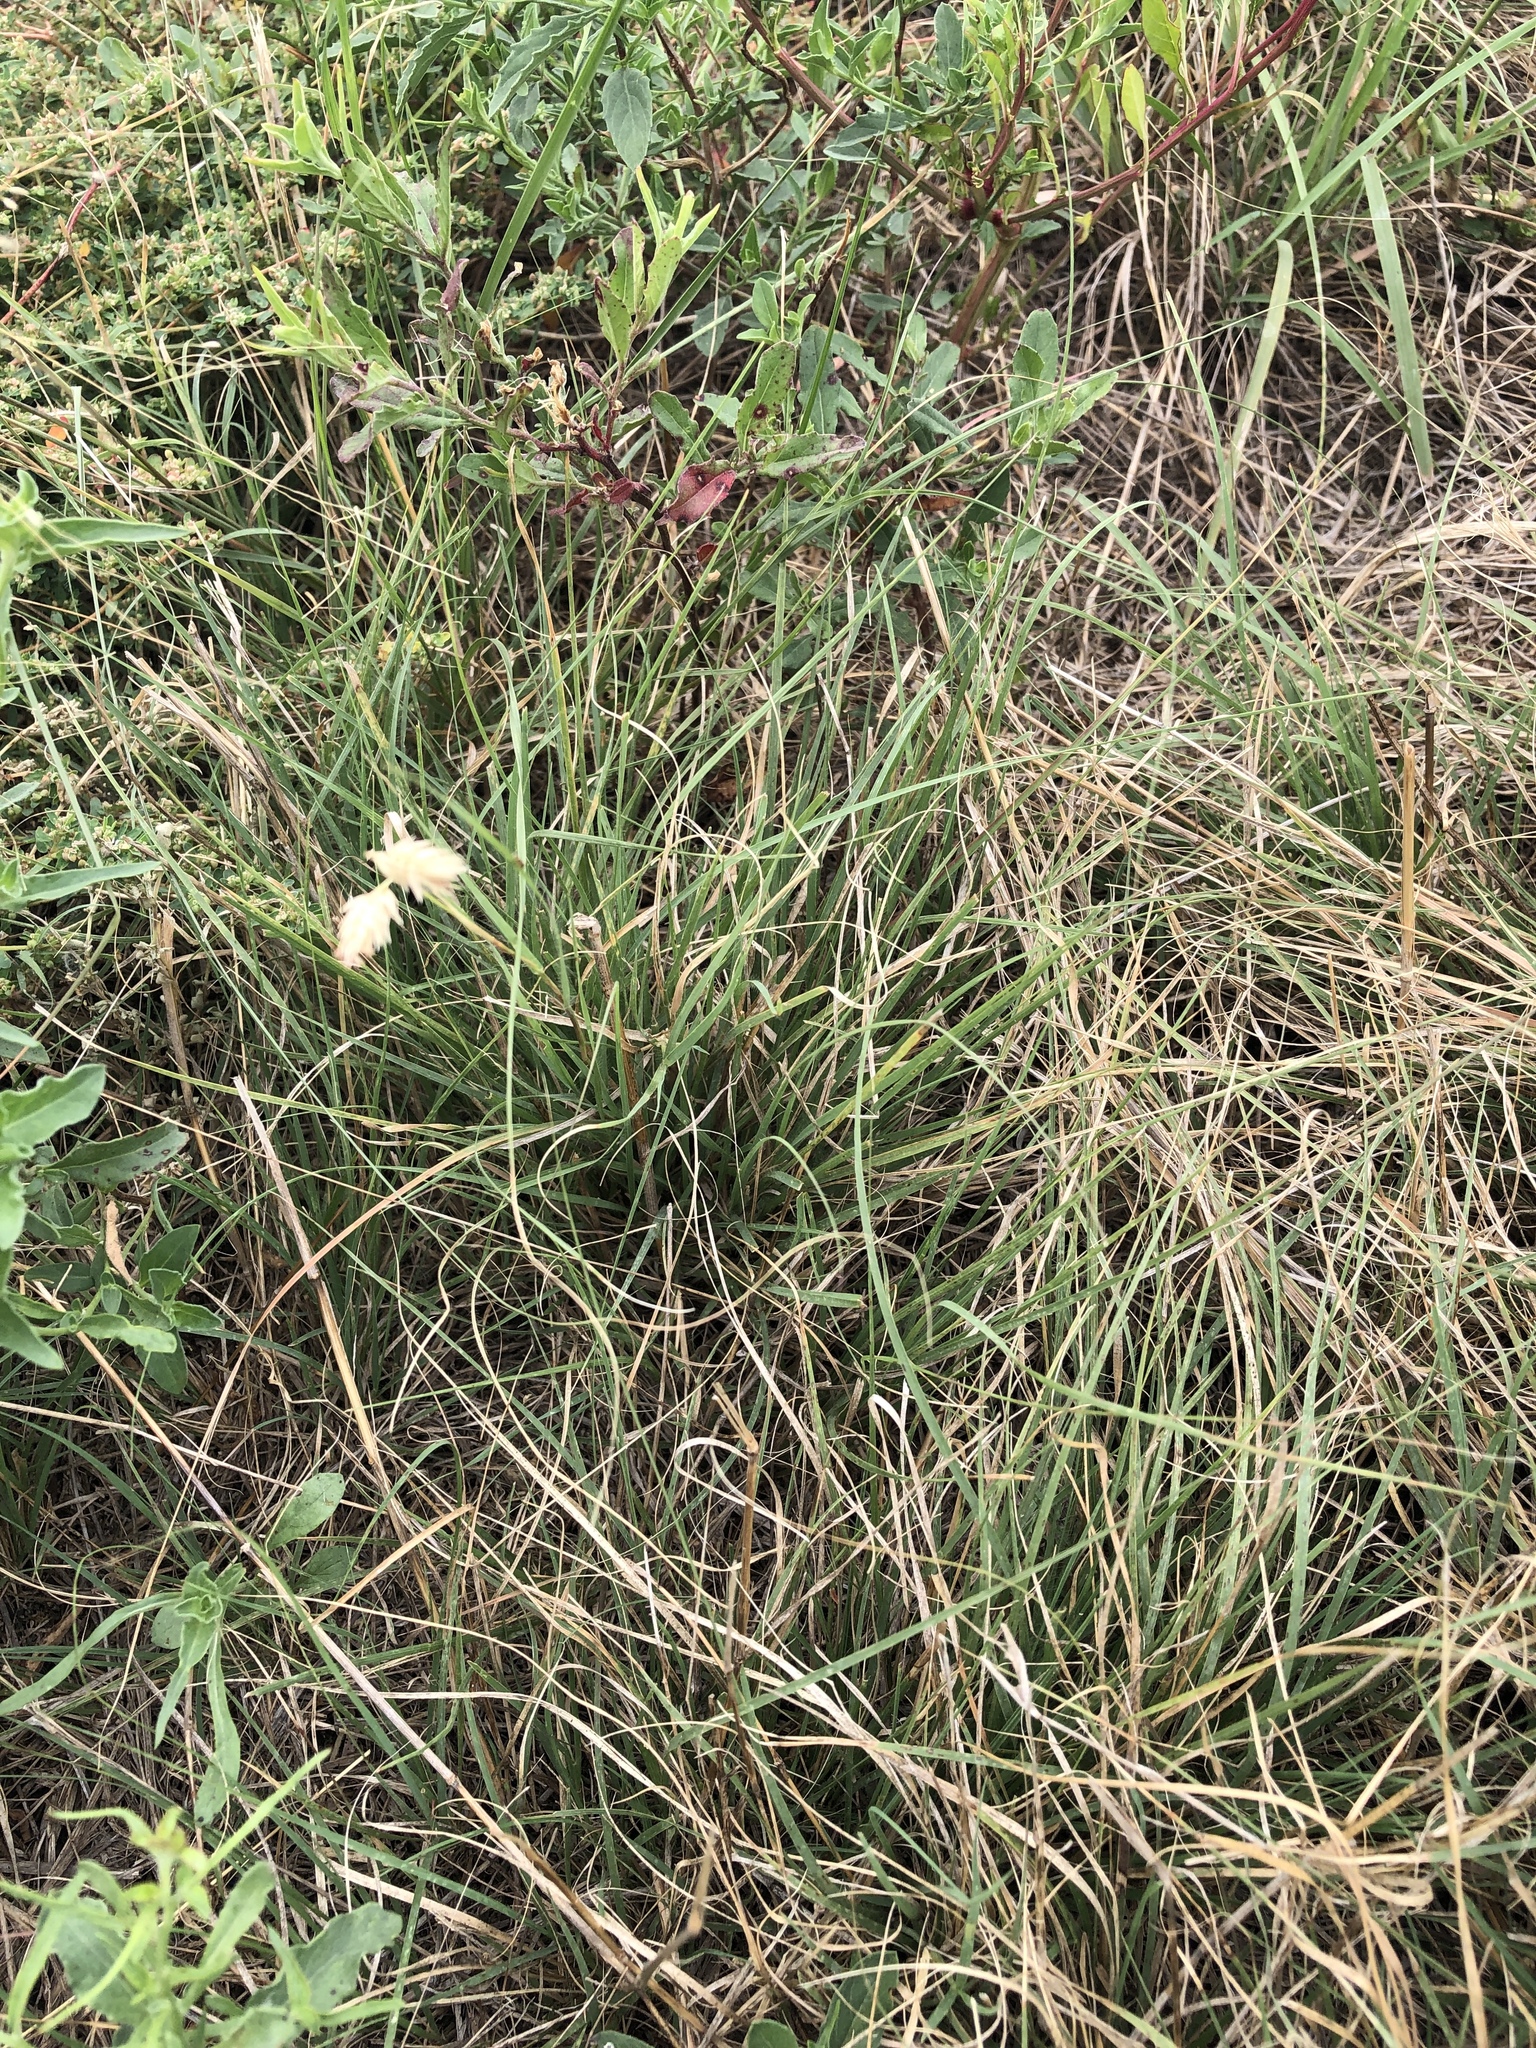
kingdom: Plantae
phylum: Tracheophyta
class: Liliopsida
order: Poales
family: Poaceae
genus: Bouteloua
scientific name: Bouteloua dactyloides
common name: Buffalo grass
